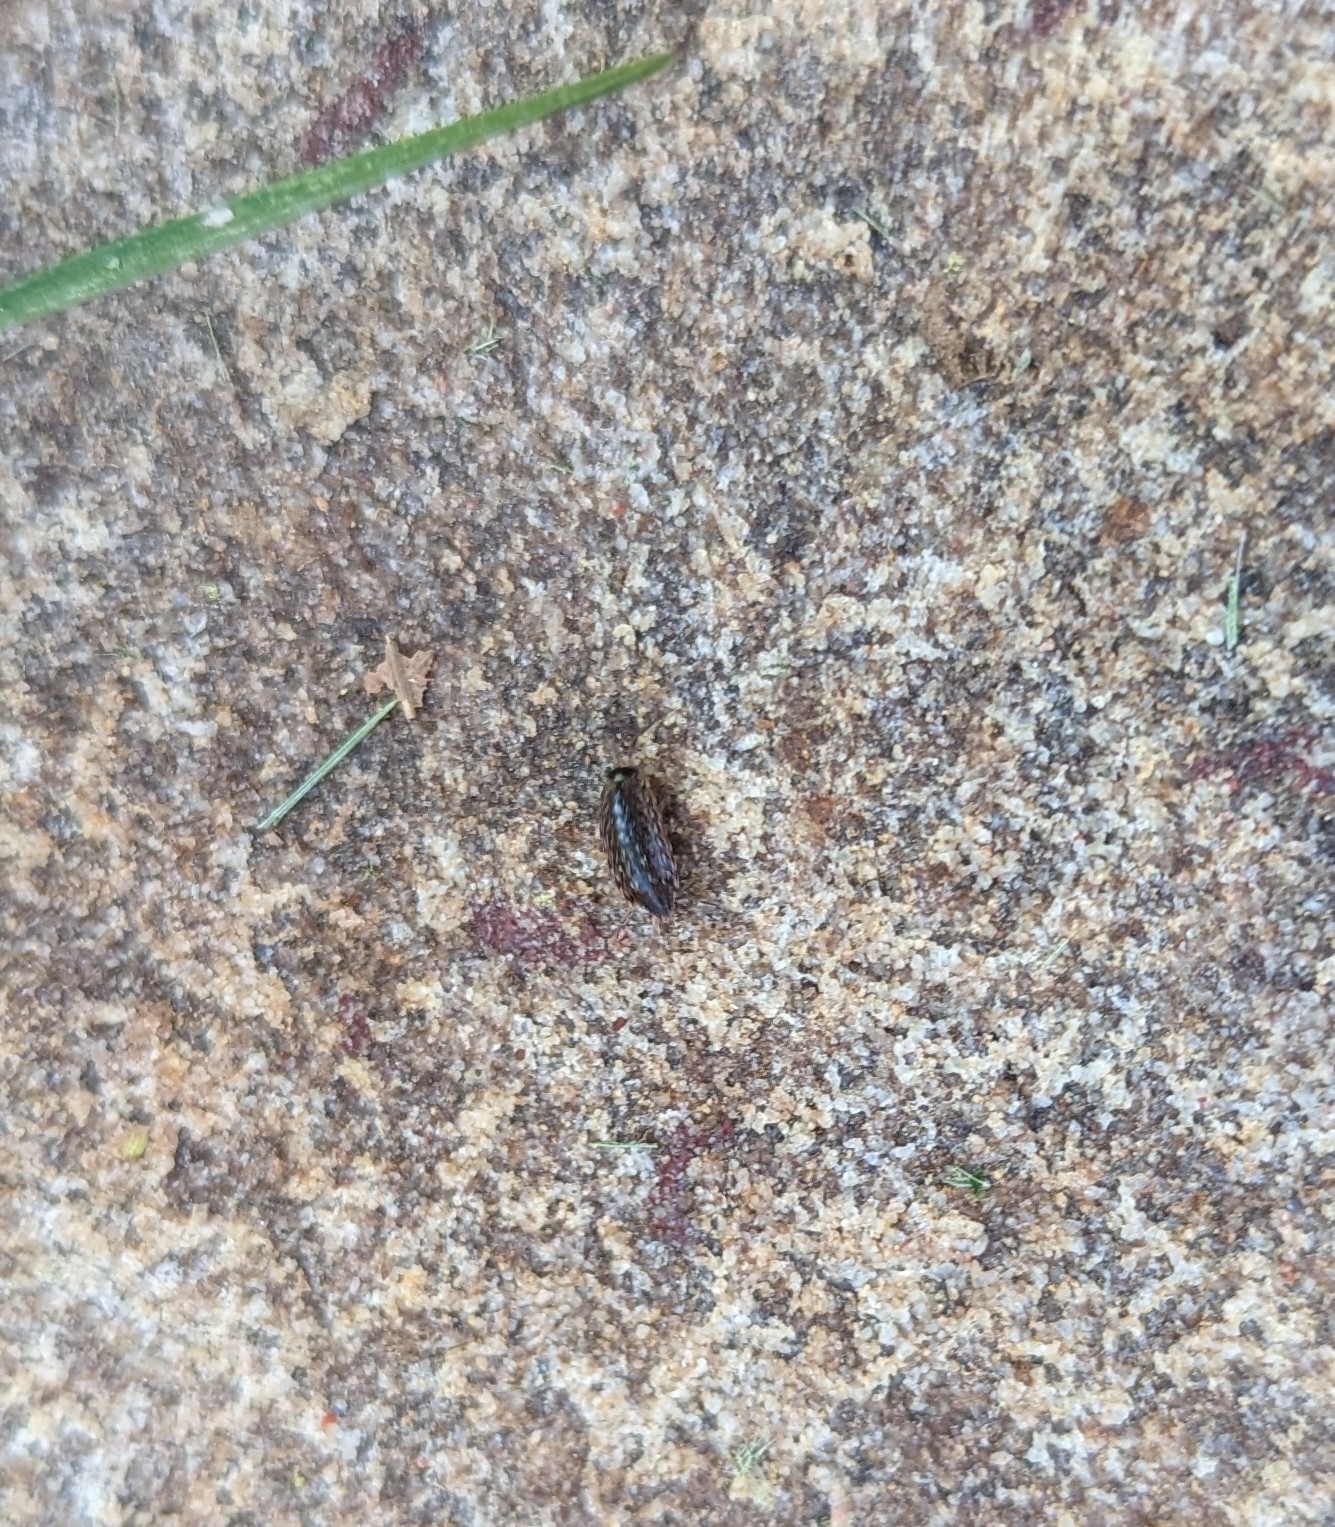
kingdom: Animalia
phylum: Arthropoda
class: Malacostraca
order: Isopoda
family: Philosciidae
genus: Philoscia
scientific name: Philoscia muscorum
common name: Common striped woodlouse
